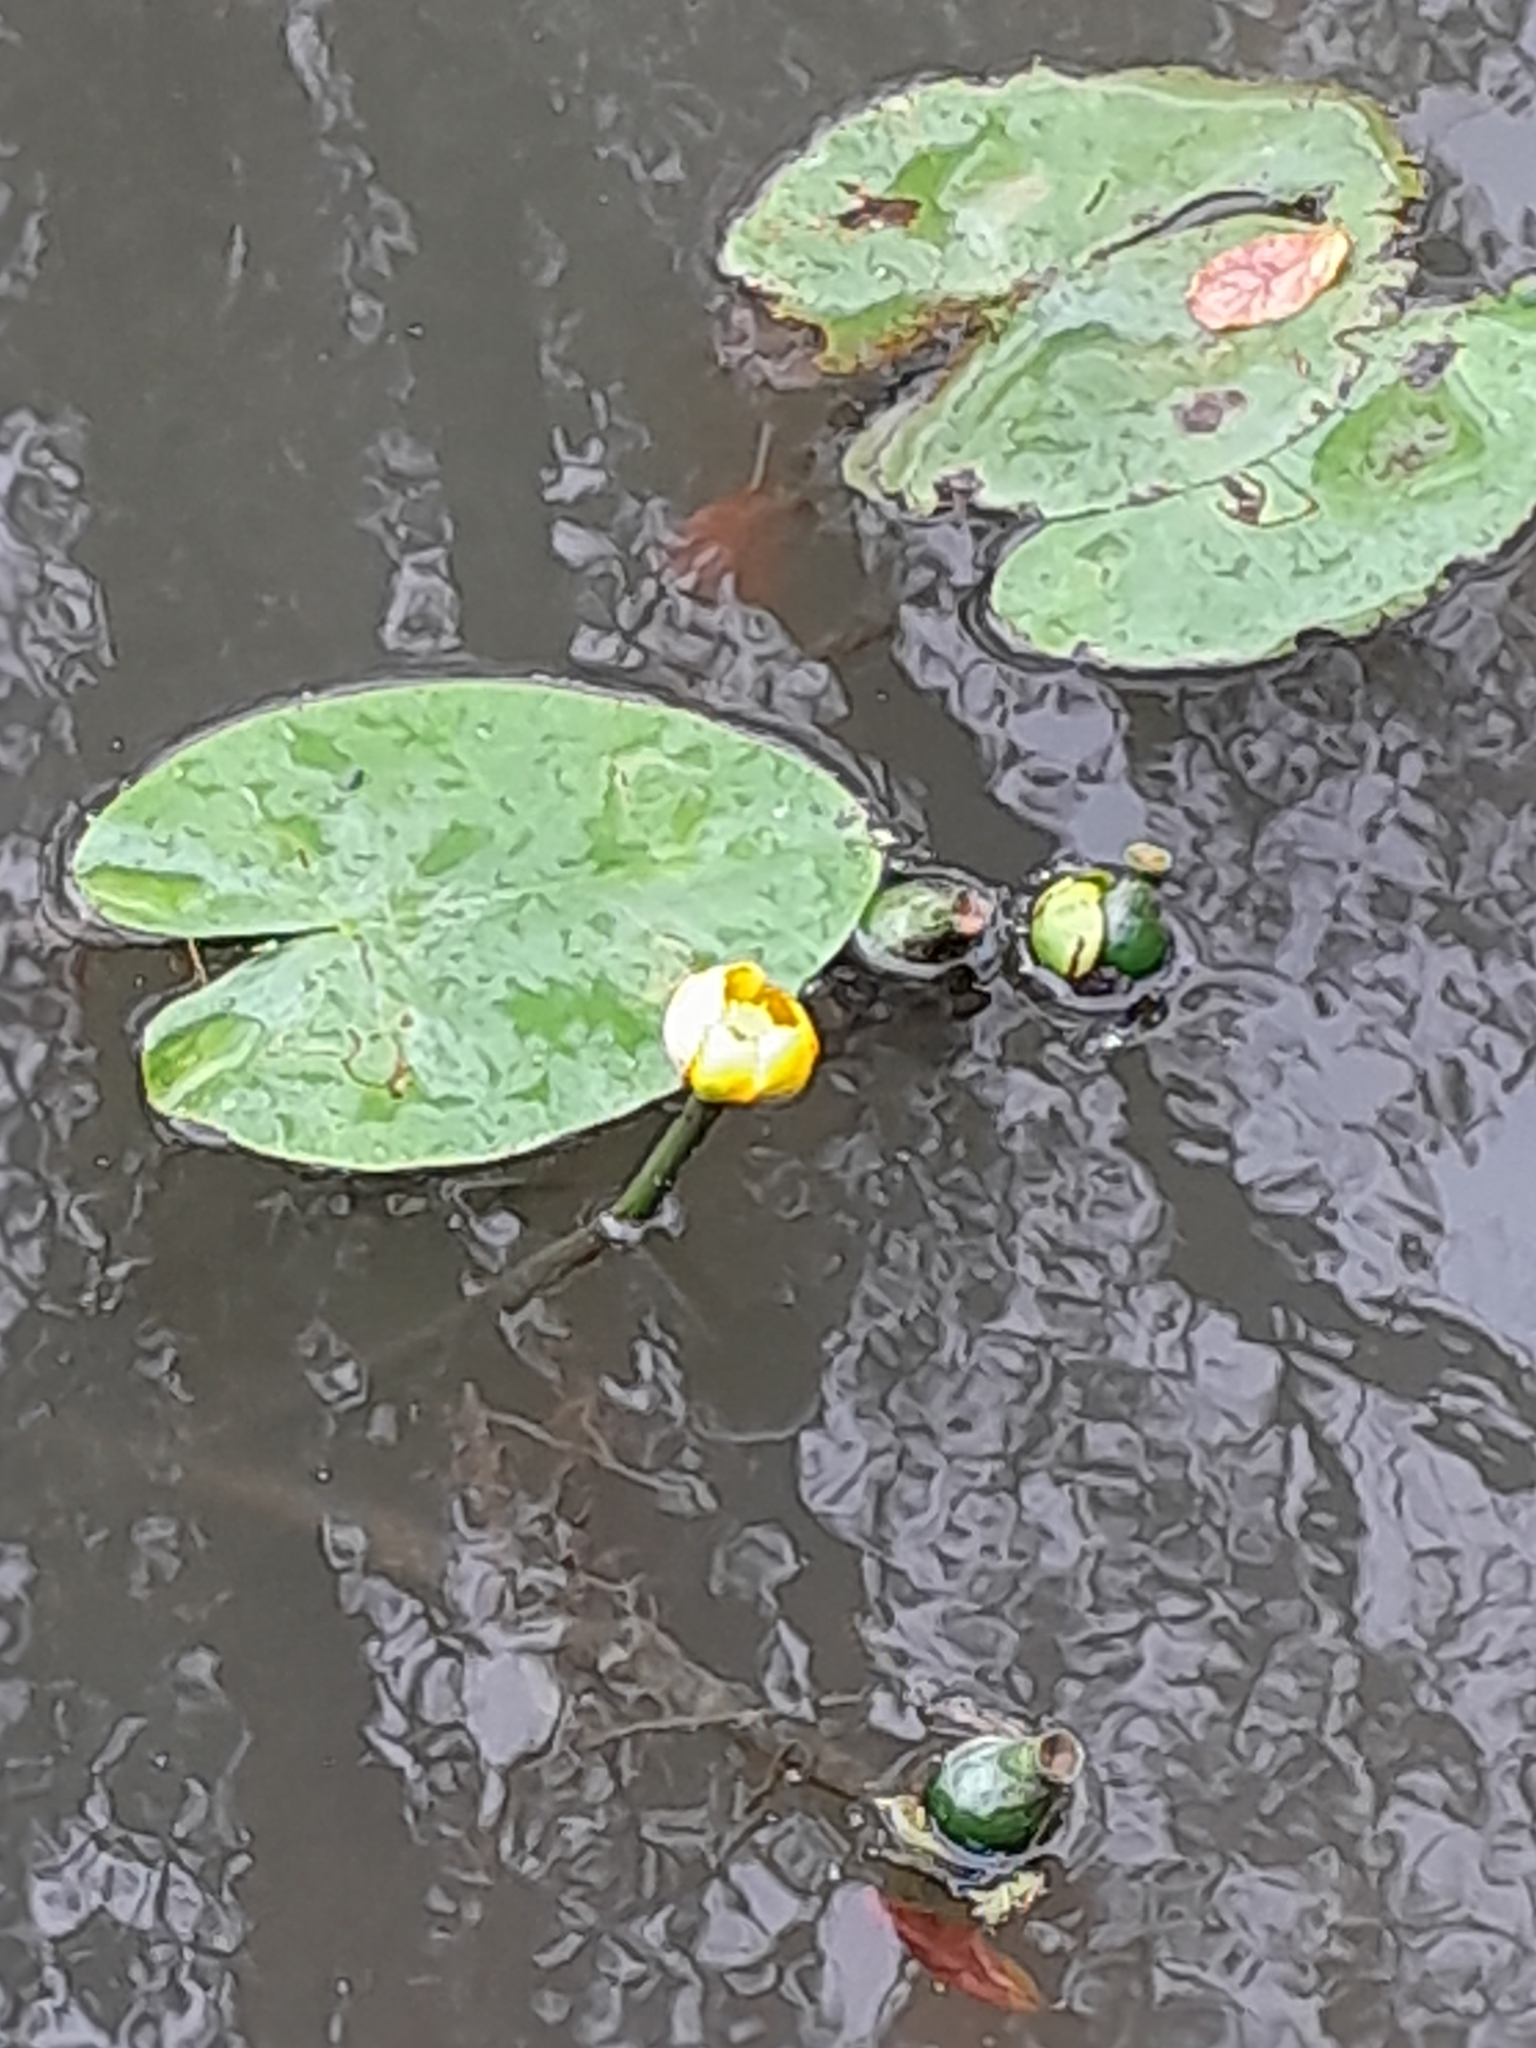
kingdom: Plantae
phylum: Tracheophyta
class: Magnoliopsida
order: Nymphaeales
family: Nymphaeaceae
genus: Nuphar
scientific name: Nuphar lutea
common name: Yellow water-lily
